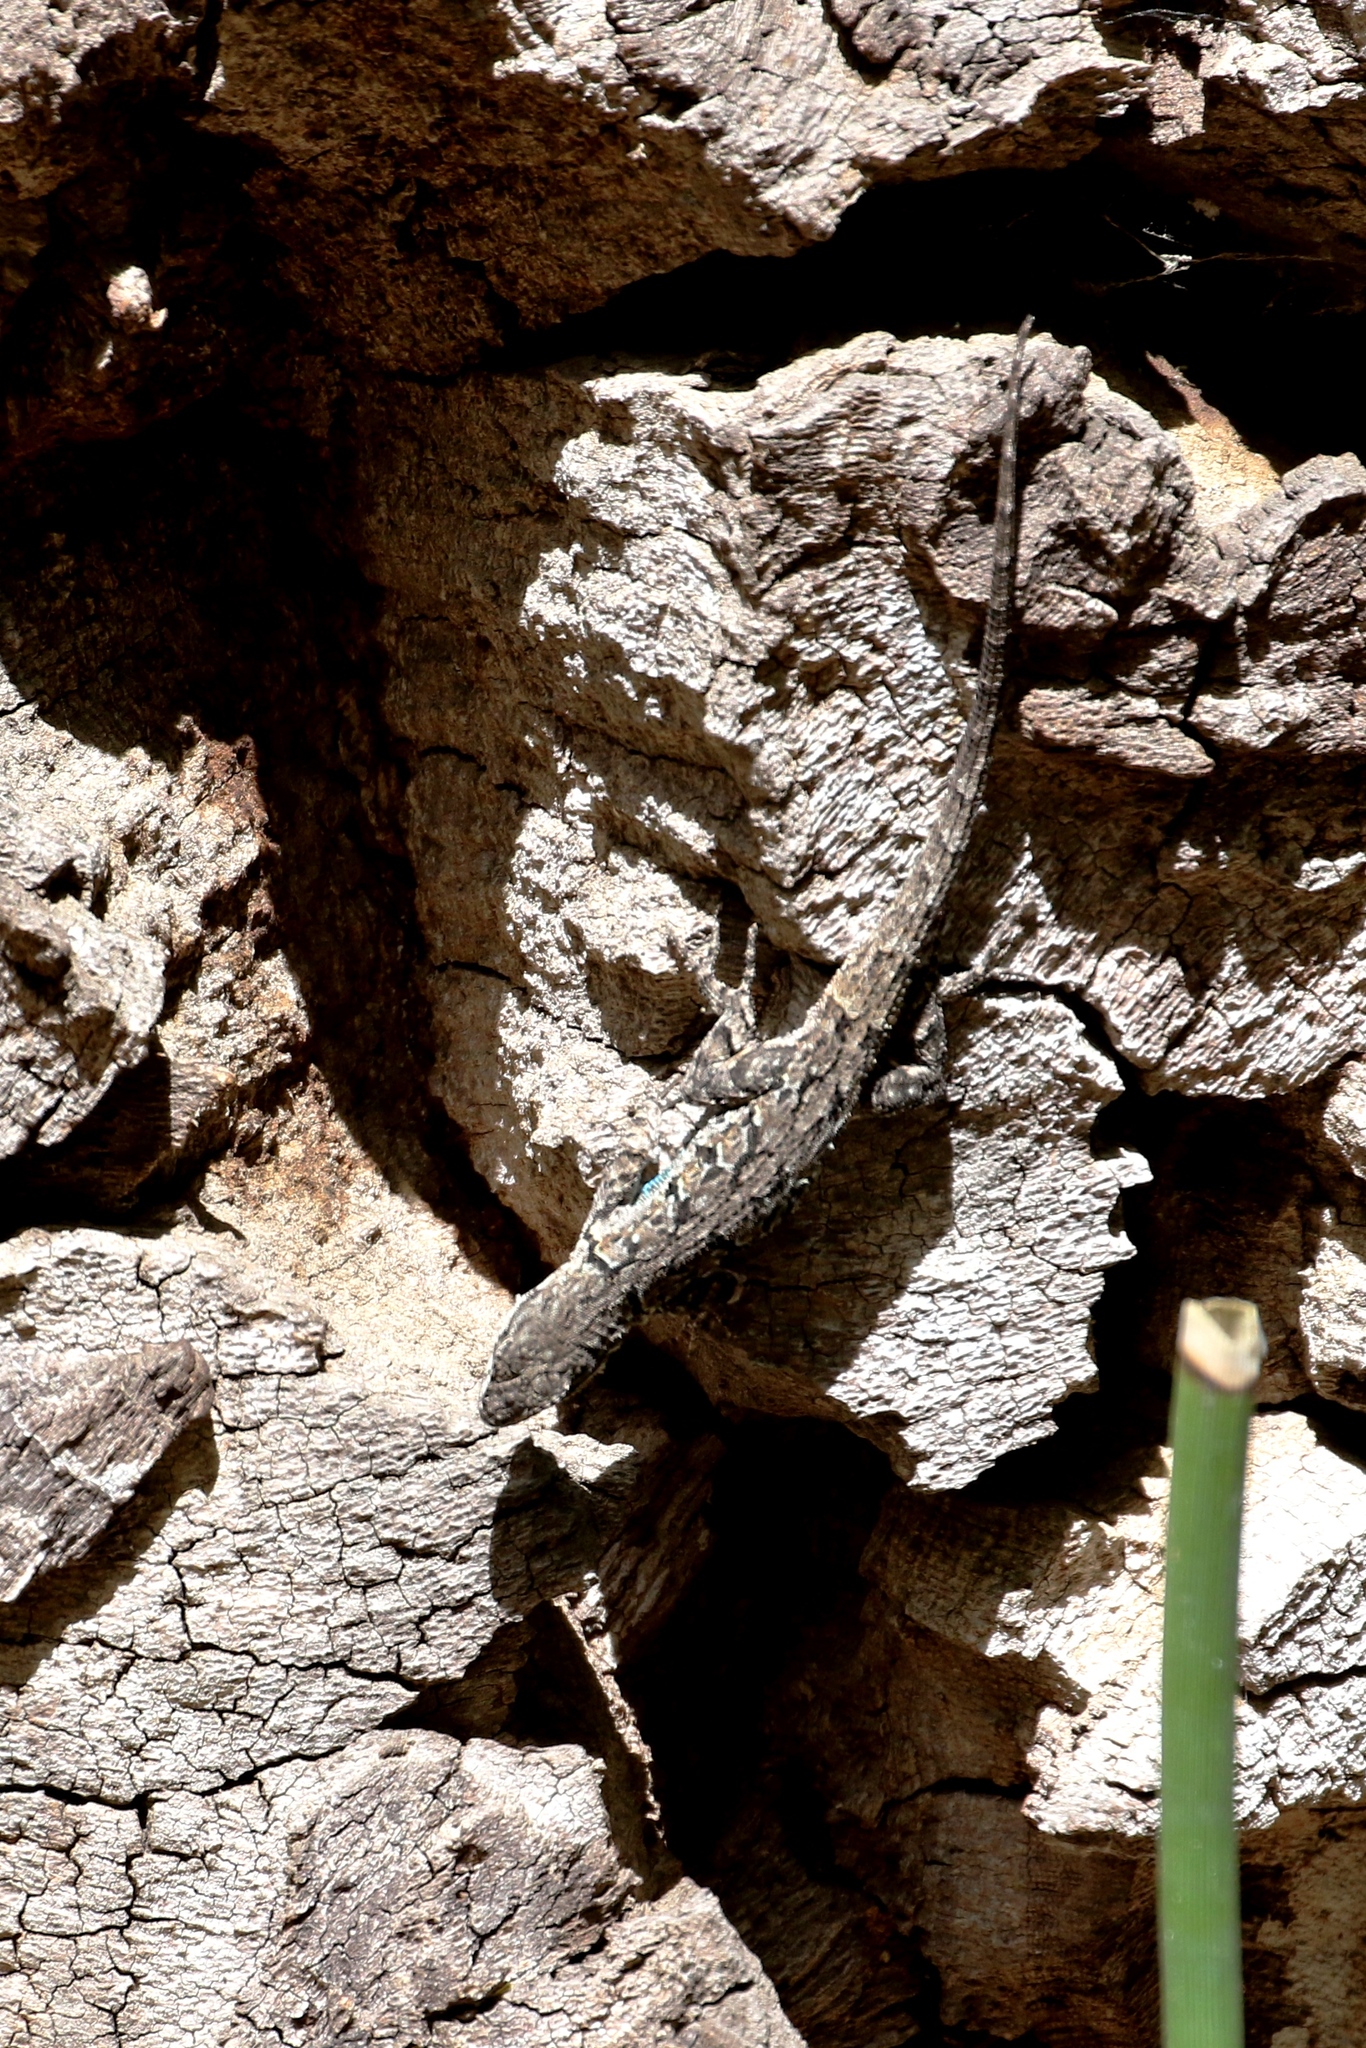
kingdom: Animalia
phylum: Chordata
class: Squamata
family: Phrynosomatidae
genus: Urosaurus
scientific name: Urosaurus ornatus
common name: Ornate tree lizard
